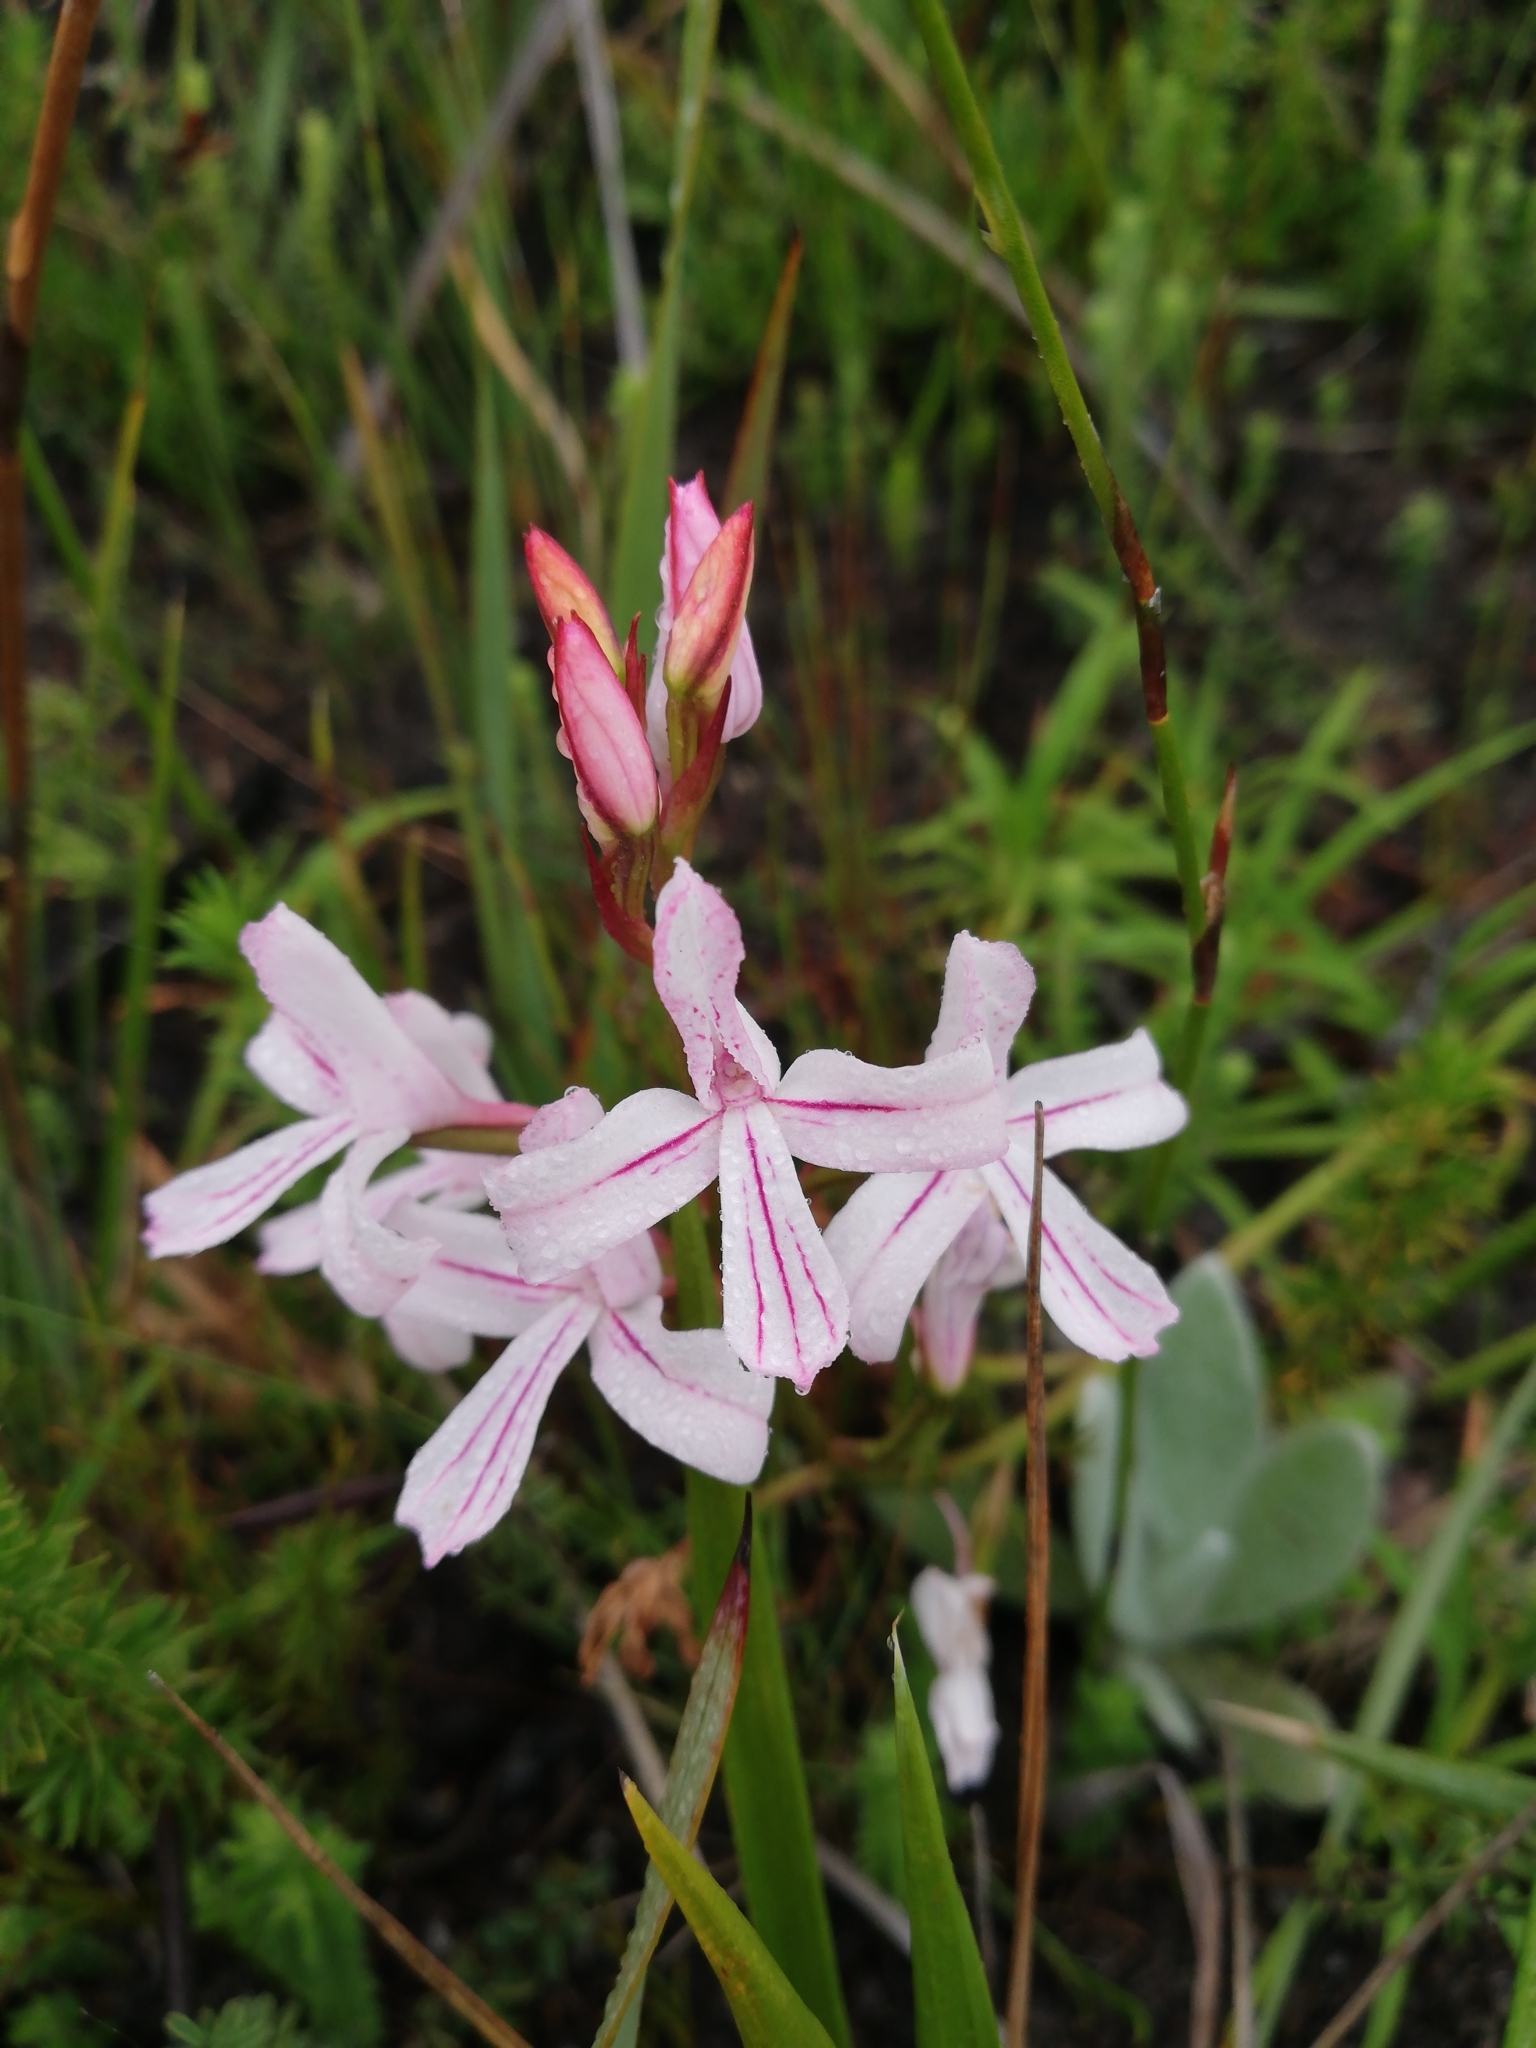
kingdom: Plantae
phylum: Tracheophyta
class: Liliopsida
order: Asparagales
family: Orchidaceae
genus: Disa
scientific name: Disa gladioliflora
